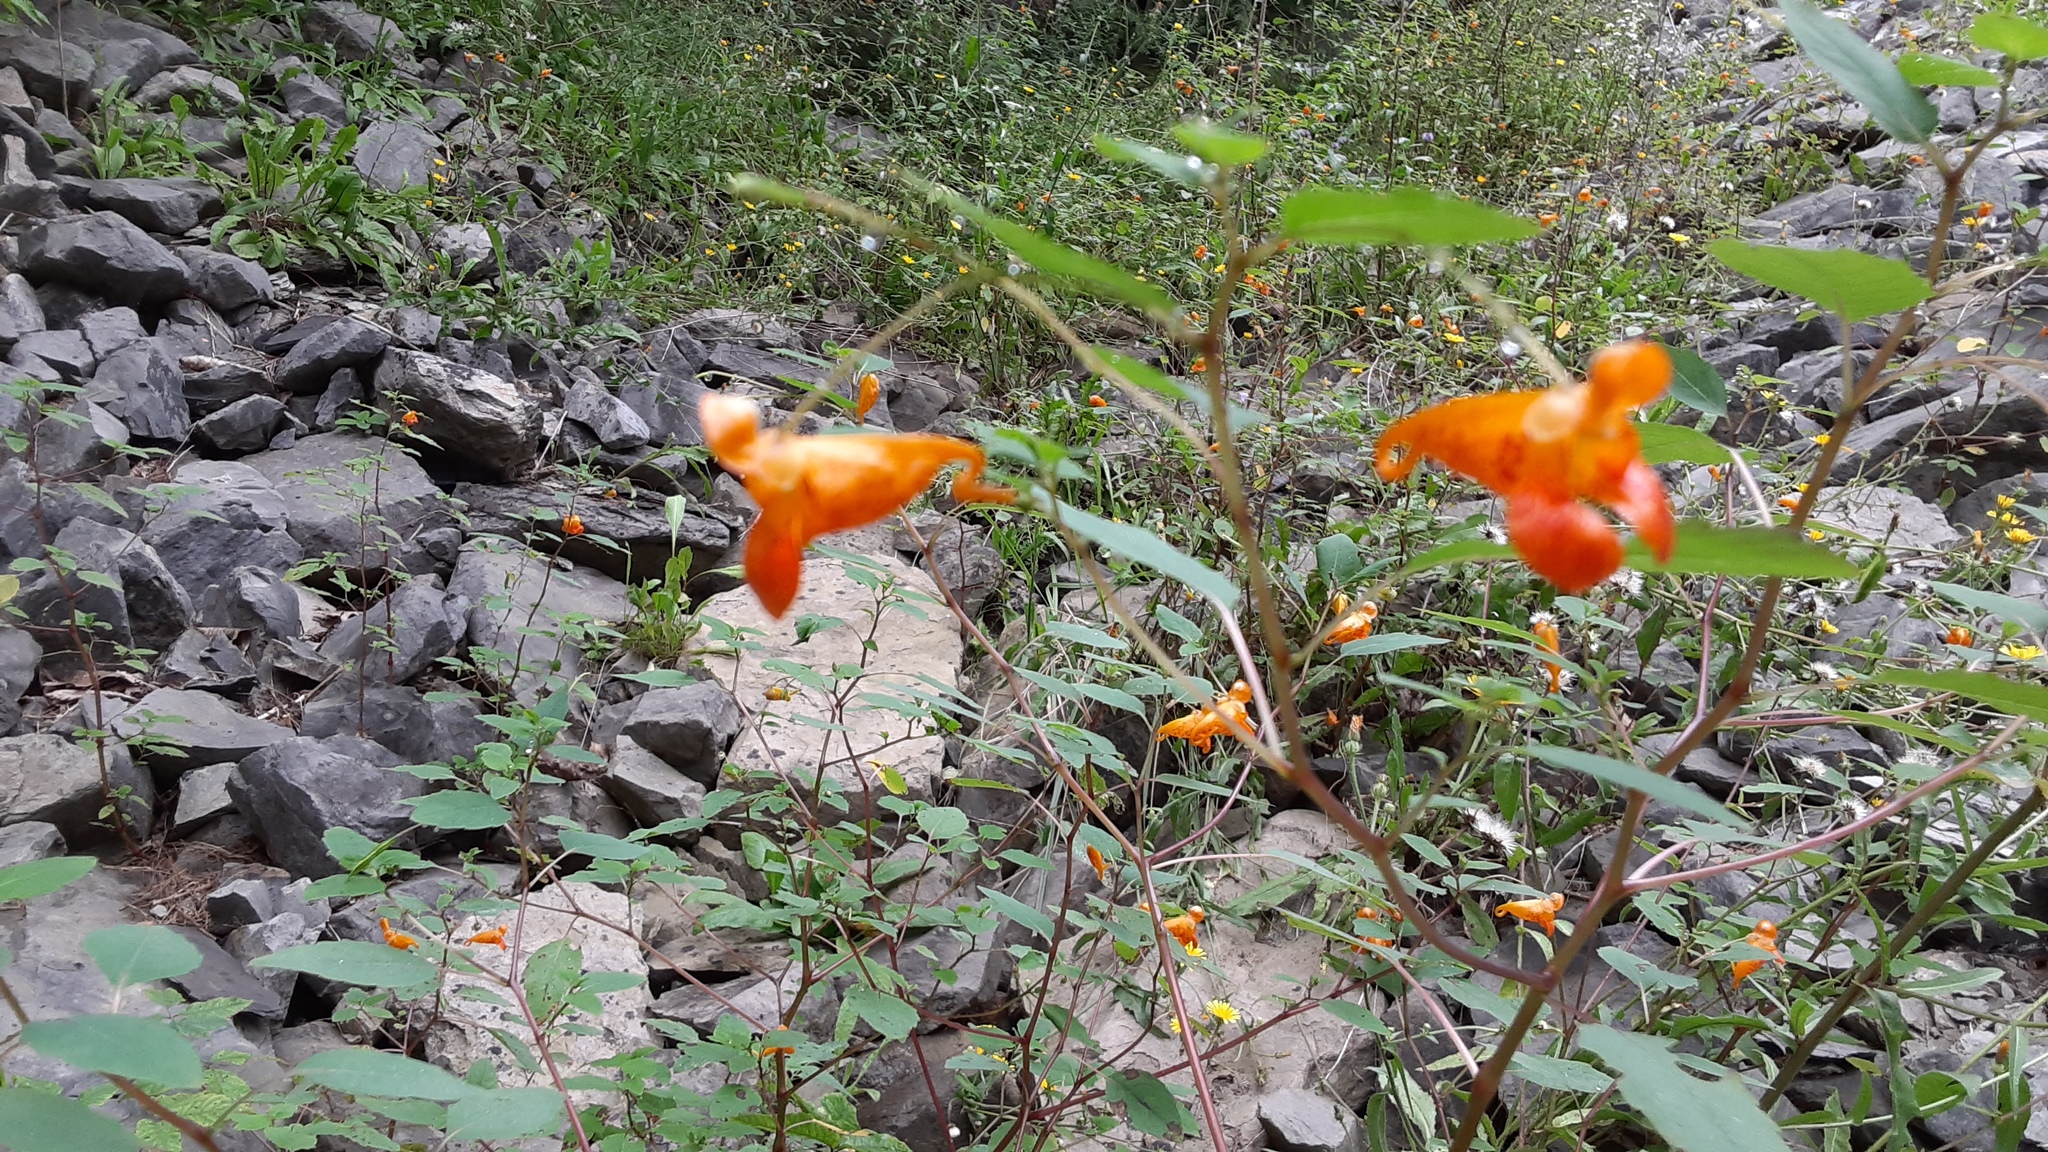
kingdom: Plantae
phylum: Tracheophyta
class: Magnoliopsida
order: Ericales
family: Balsaminaceae
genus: Impatiens
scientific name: Impatiens capensis
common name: Orange balsam
